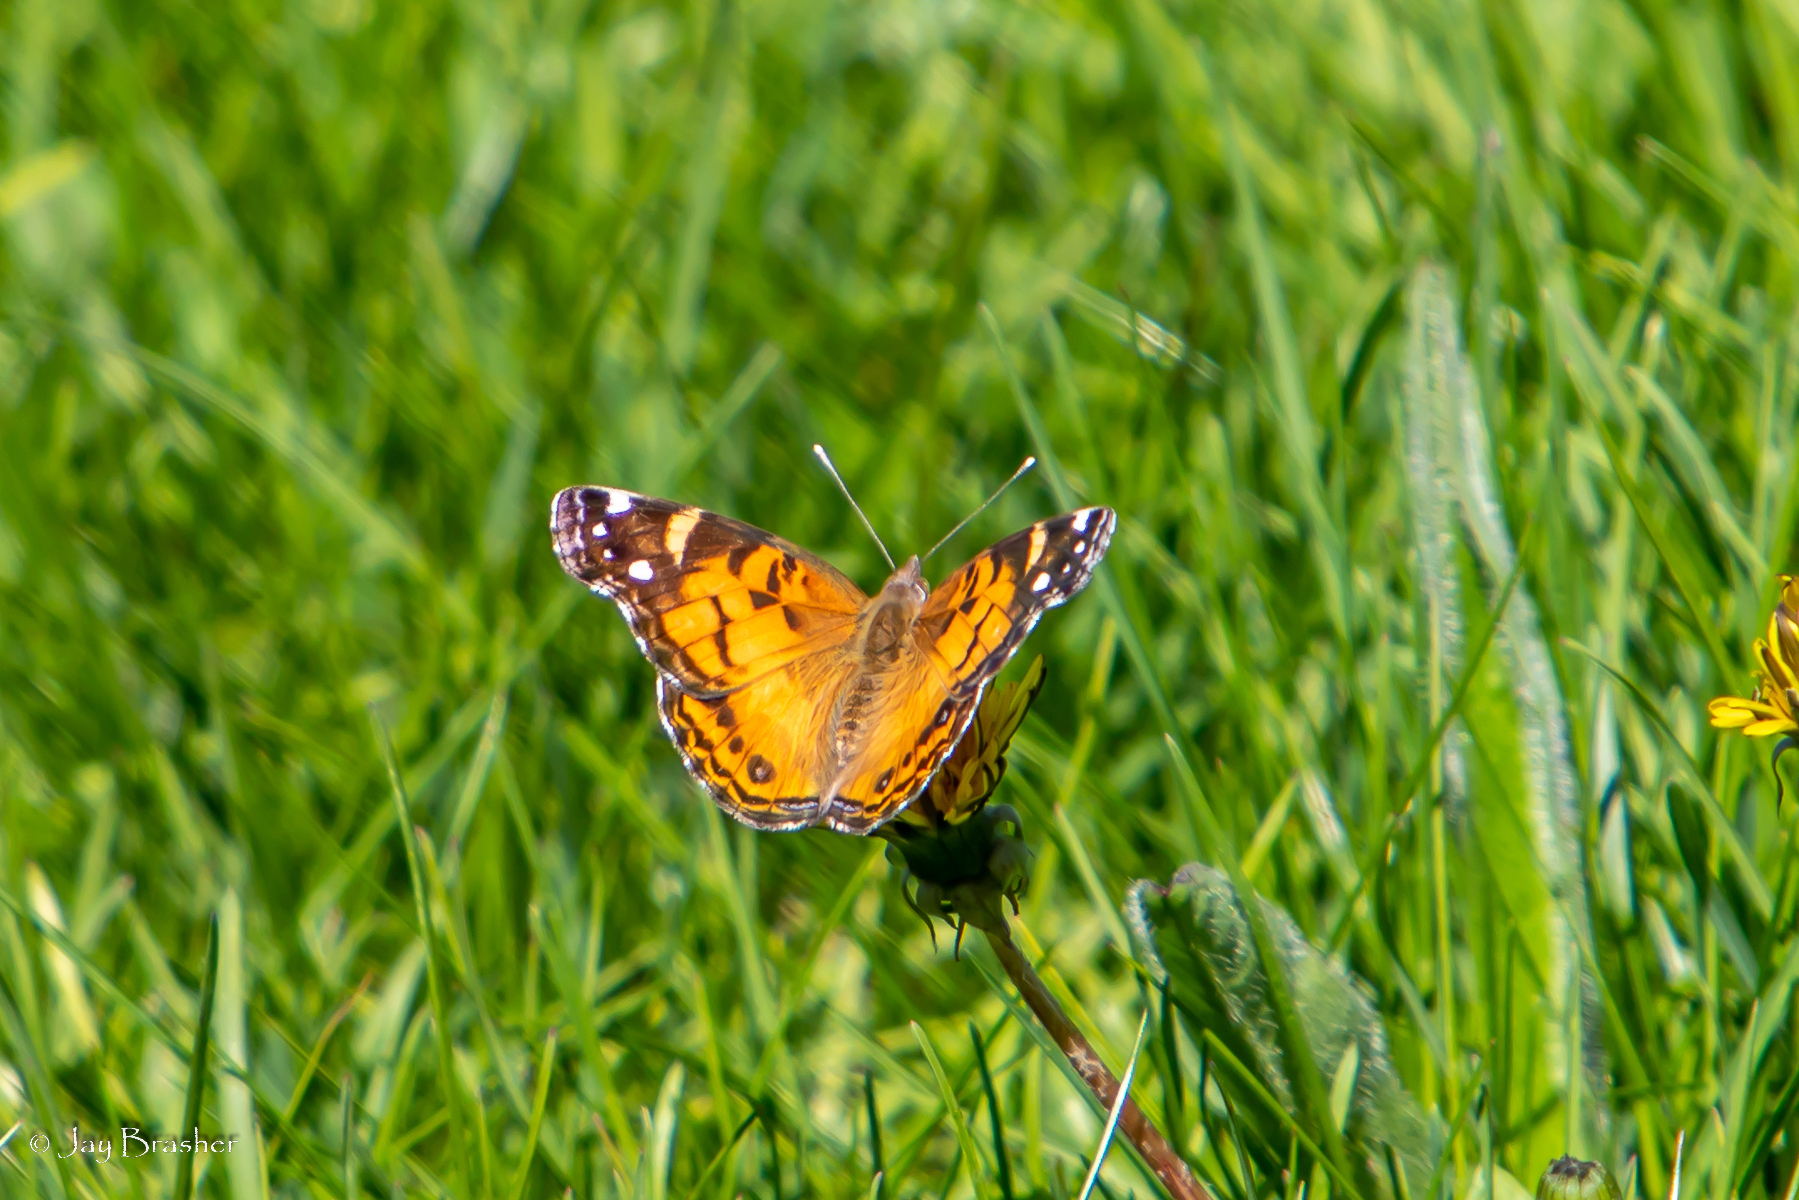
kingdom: Animalia
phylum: Arthropoda
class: Insecta
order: Lepidoptera
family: Nymphalidae
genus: Vanessa
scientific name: Vanessa virginiensis
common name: American lady
